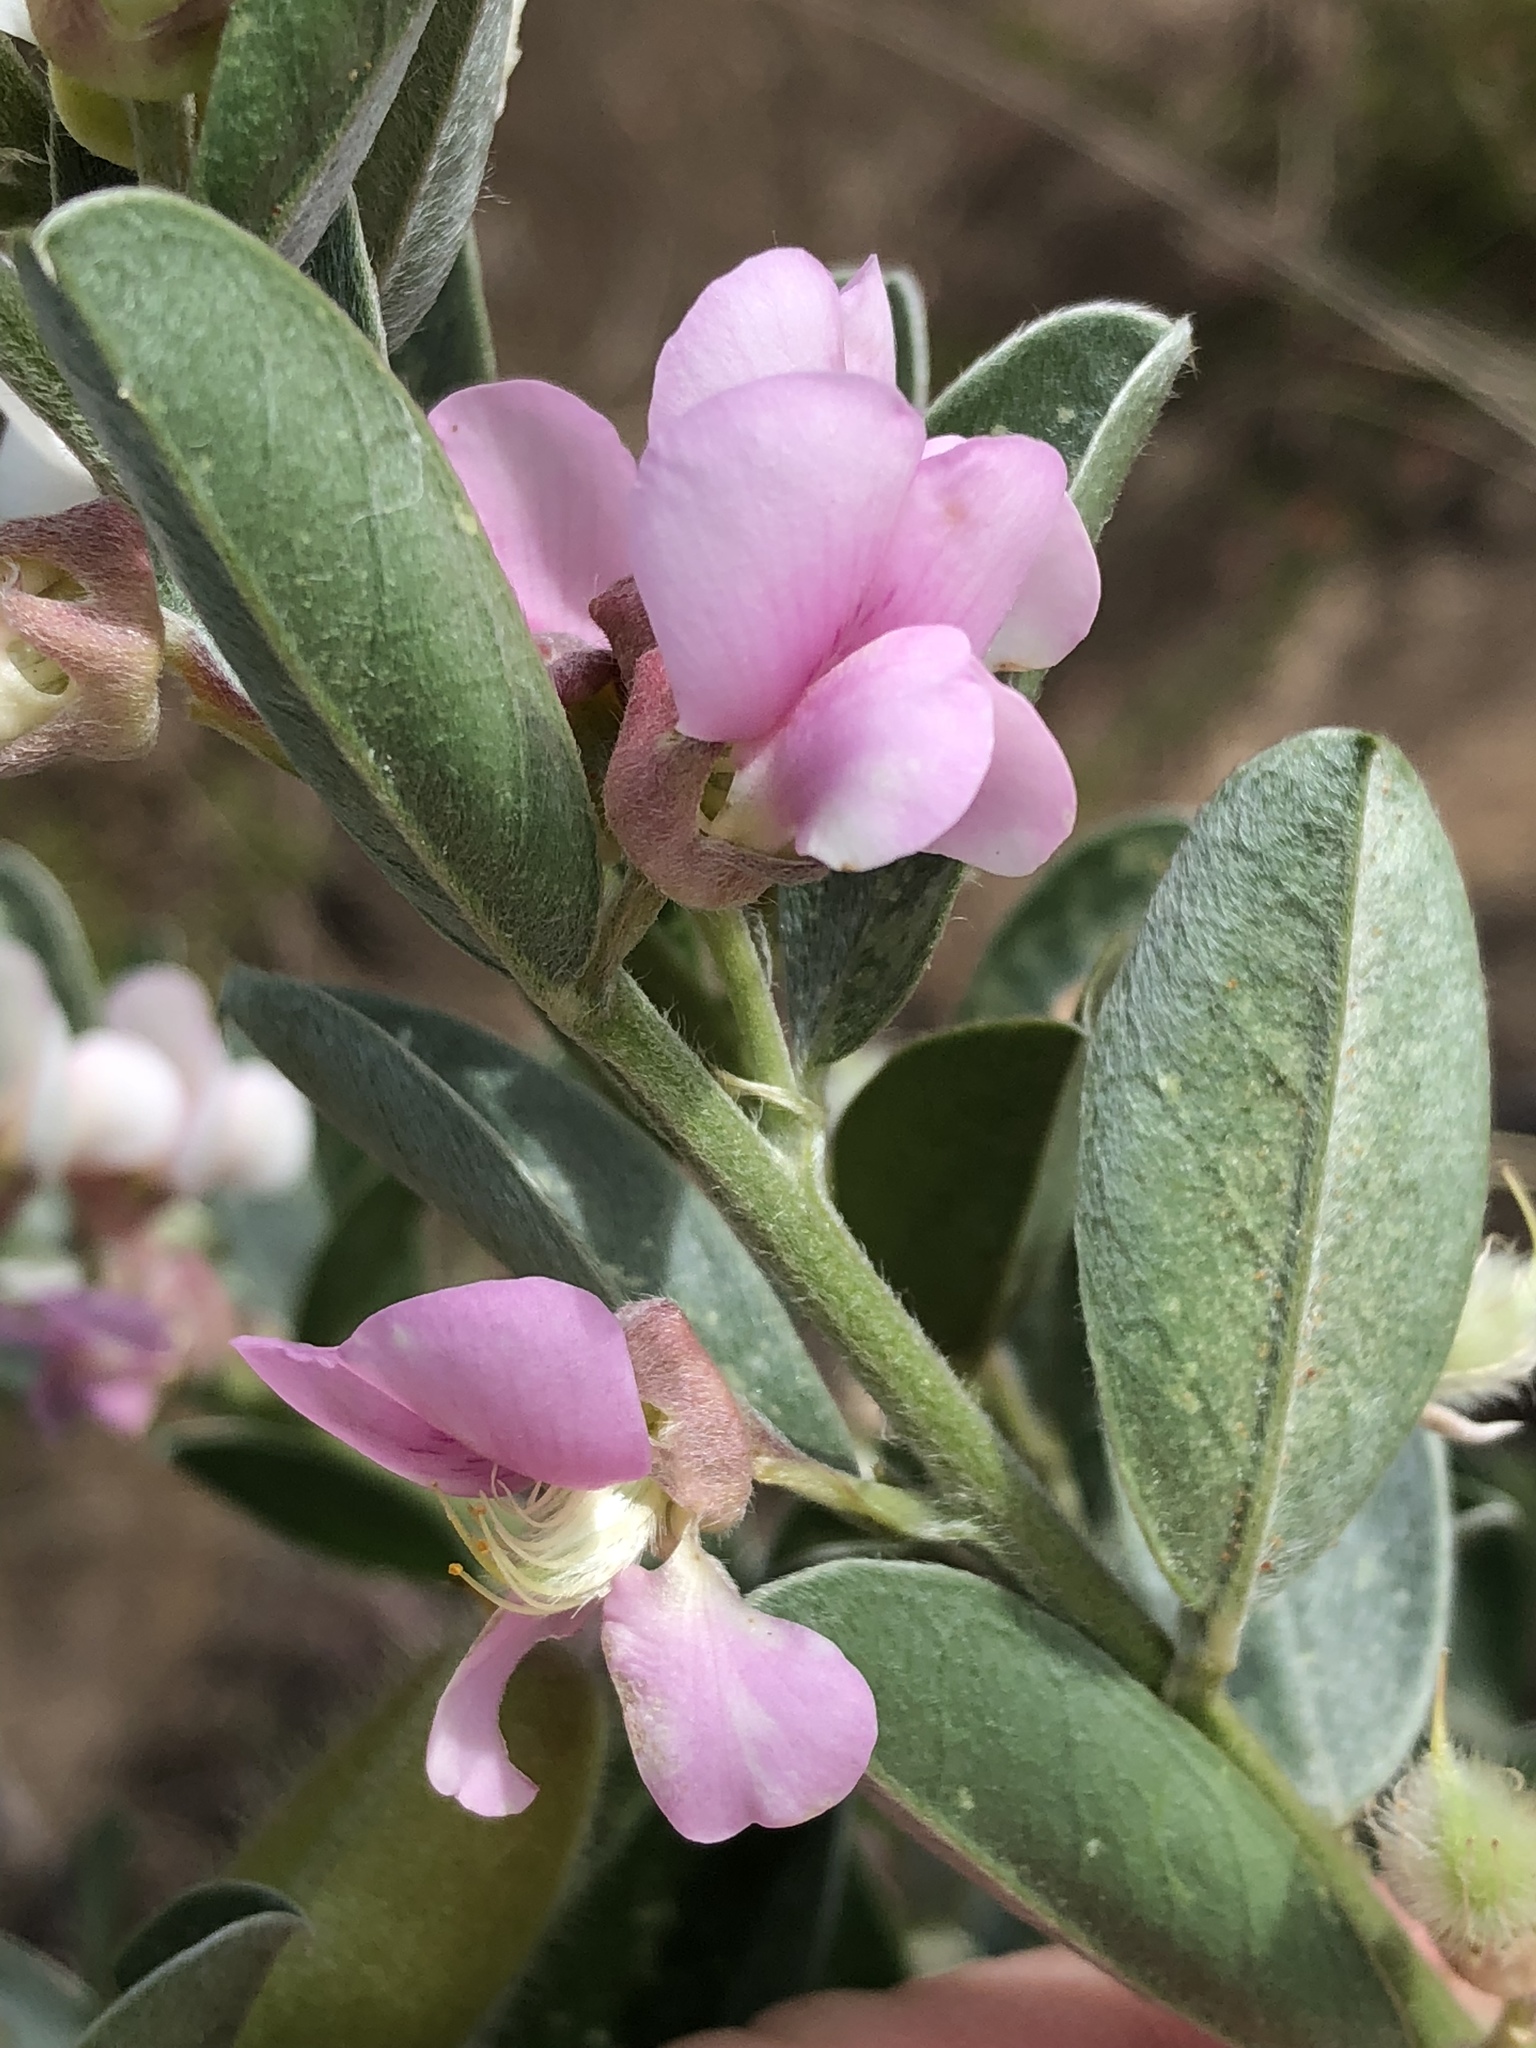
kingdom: Plantae
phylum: Tracheophyta
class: Magnoliopsida
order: Fabales
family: Fabaceae
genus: Podalyria
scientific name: Podalyria myrtillifolia
